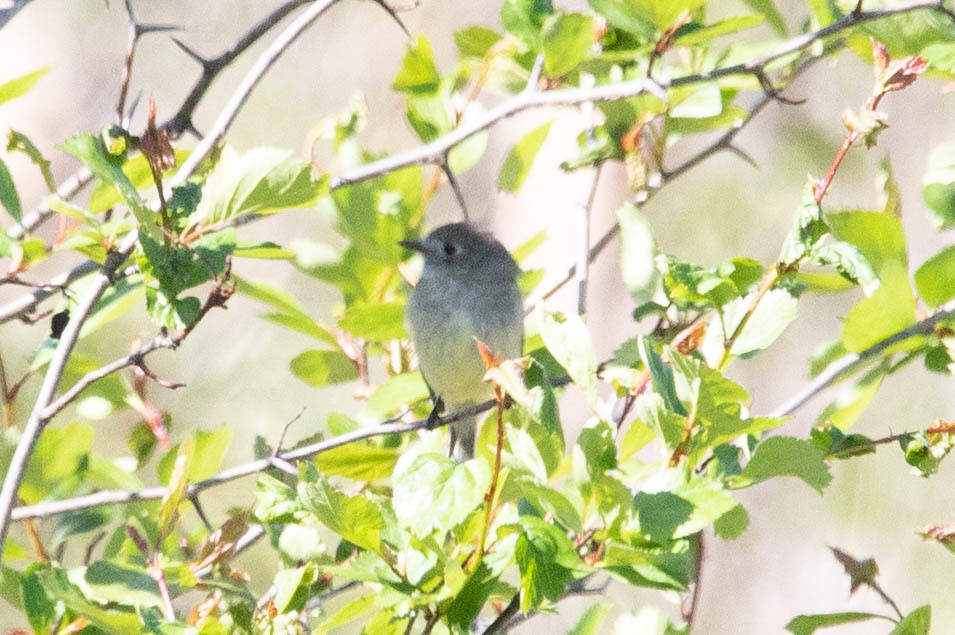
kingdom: Animalia
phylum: Chordata
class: Aves
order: Passeriformes
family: Tyrannidae
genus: Empidonax
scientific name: Empidonax
